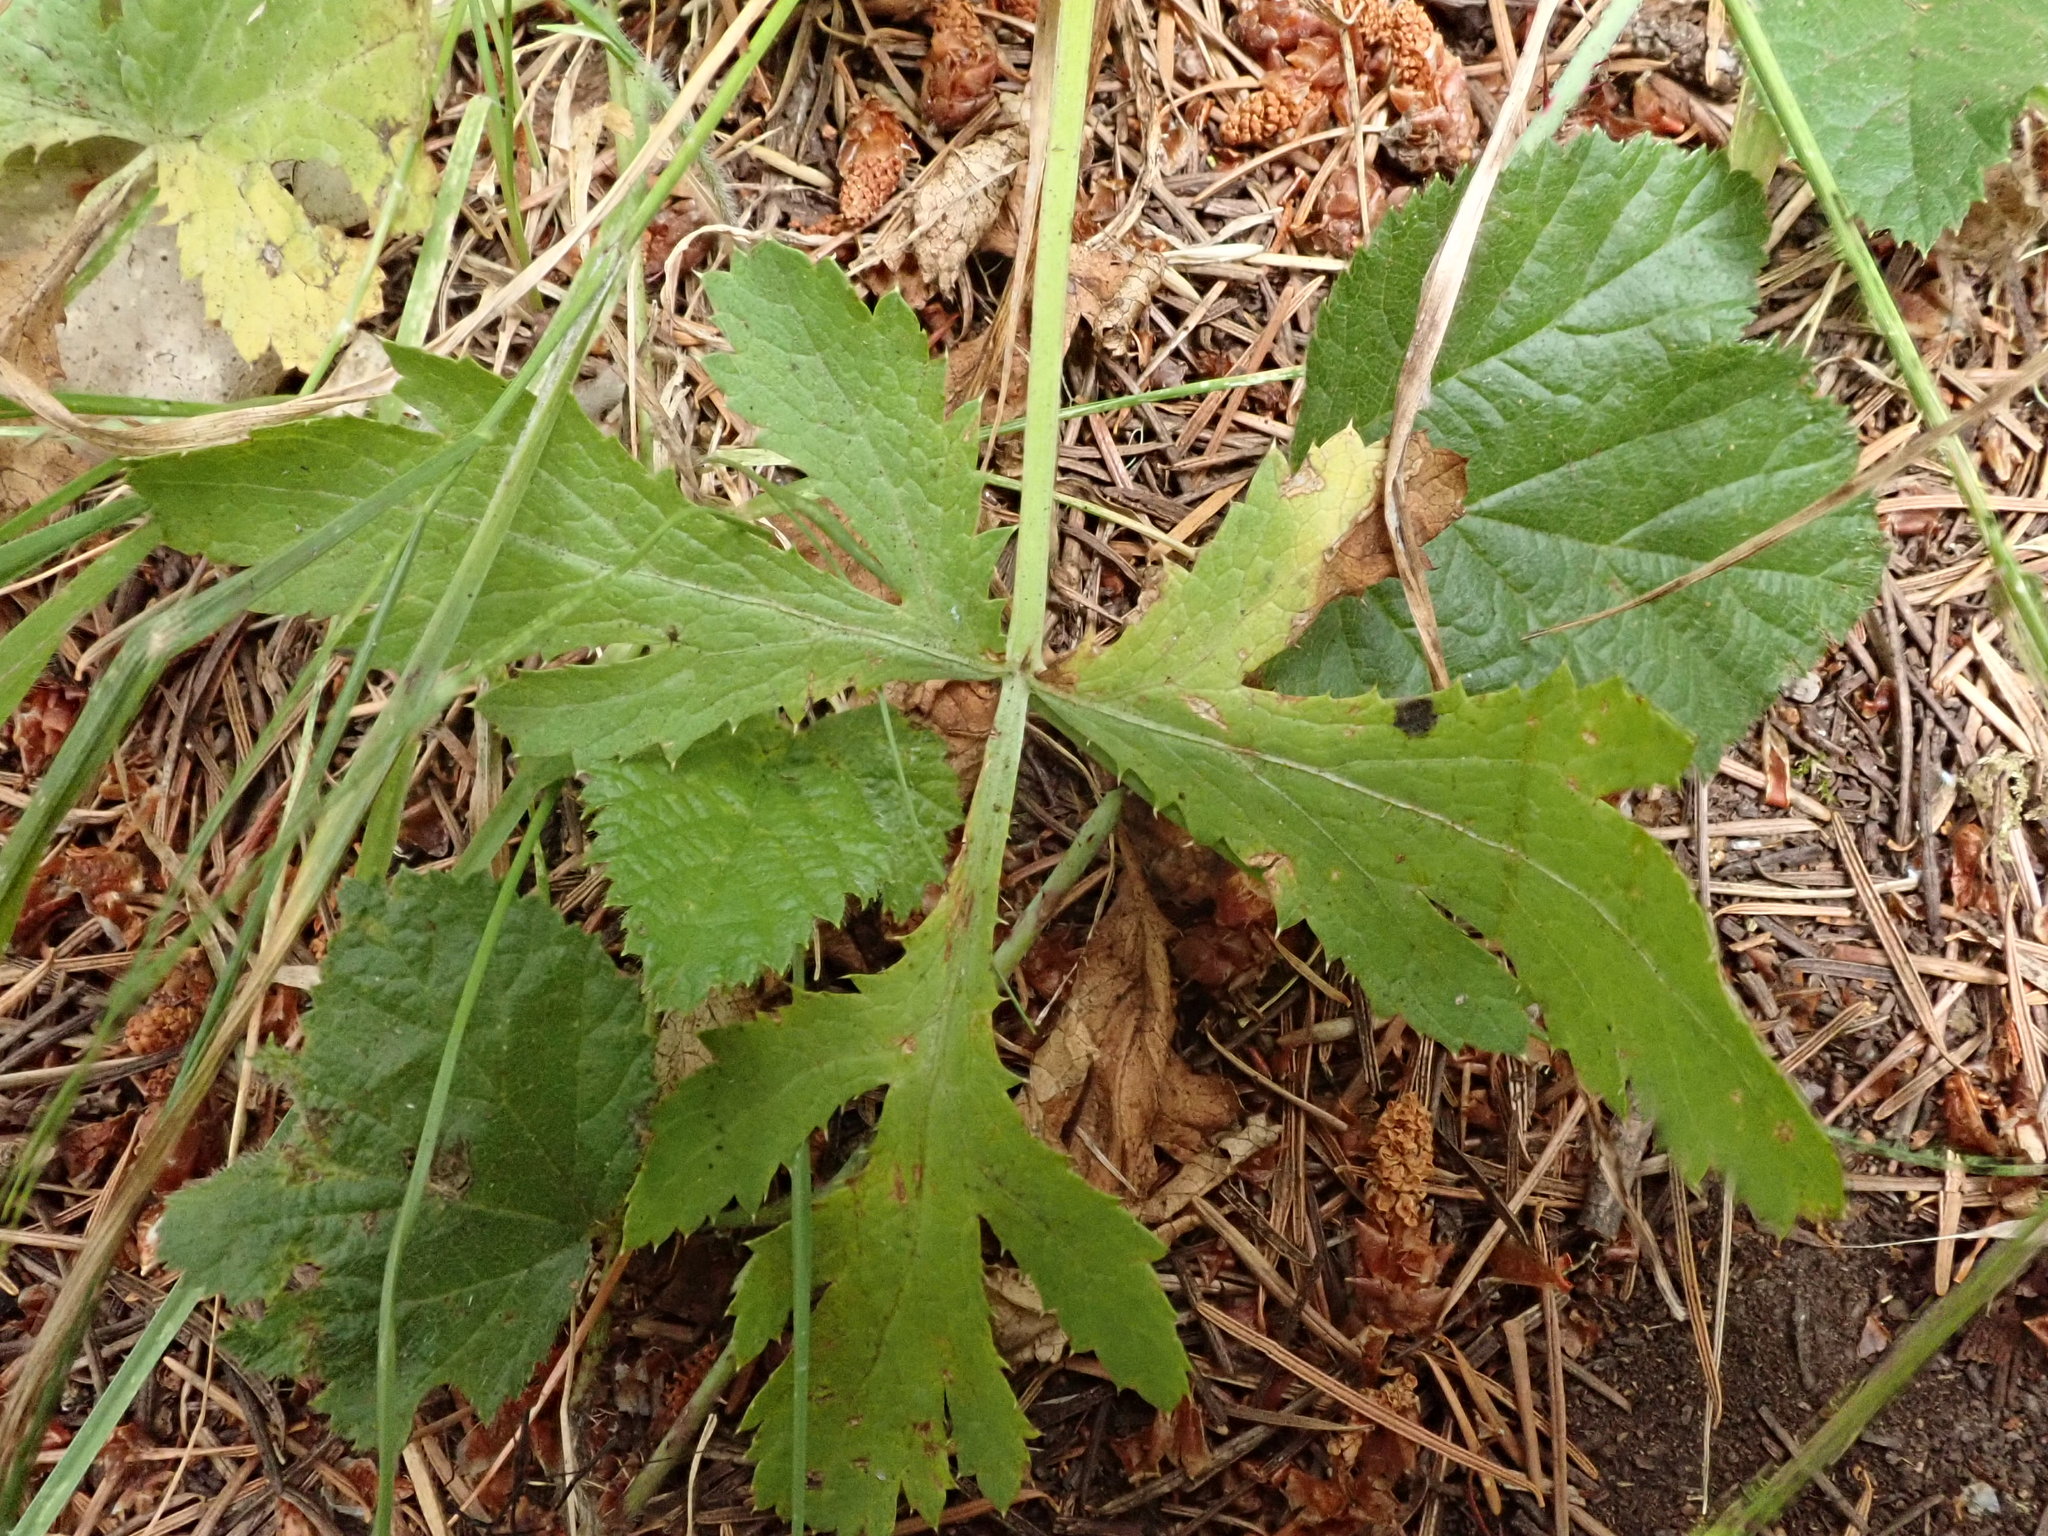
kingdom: Plantae
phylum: Tracheophyta
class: Magnoliopsida
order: Apiales
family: Apiaceae
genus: Sanicula
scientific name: Sanicula hoffmannii
